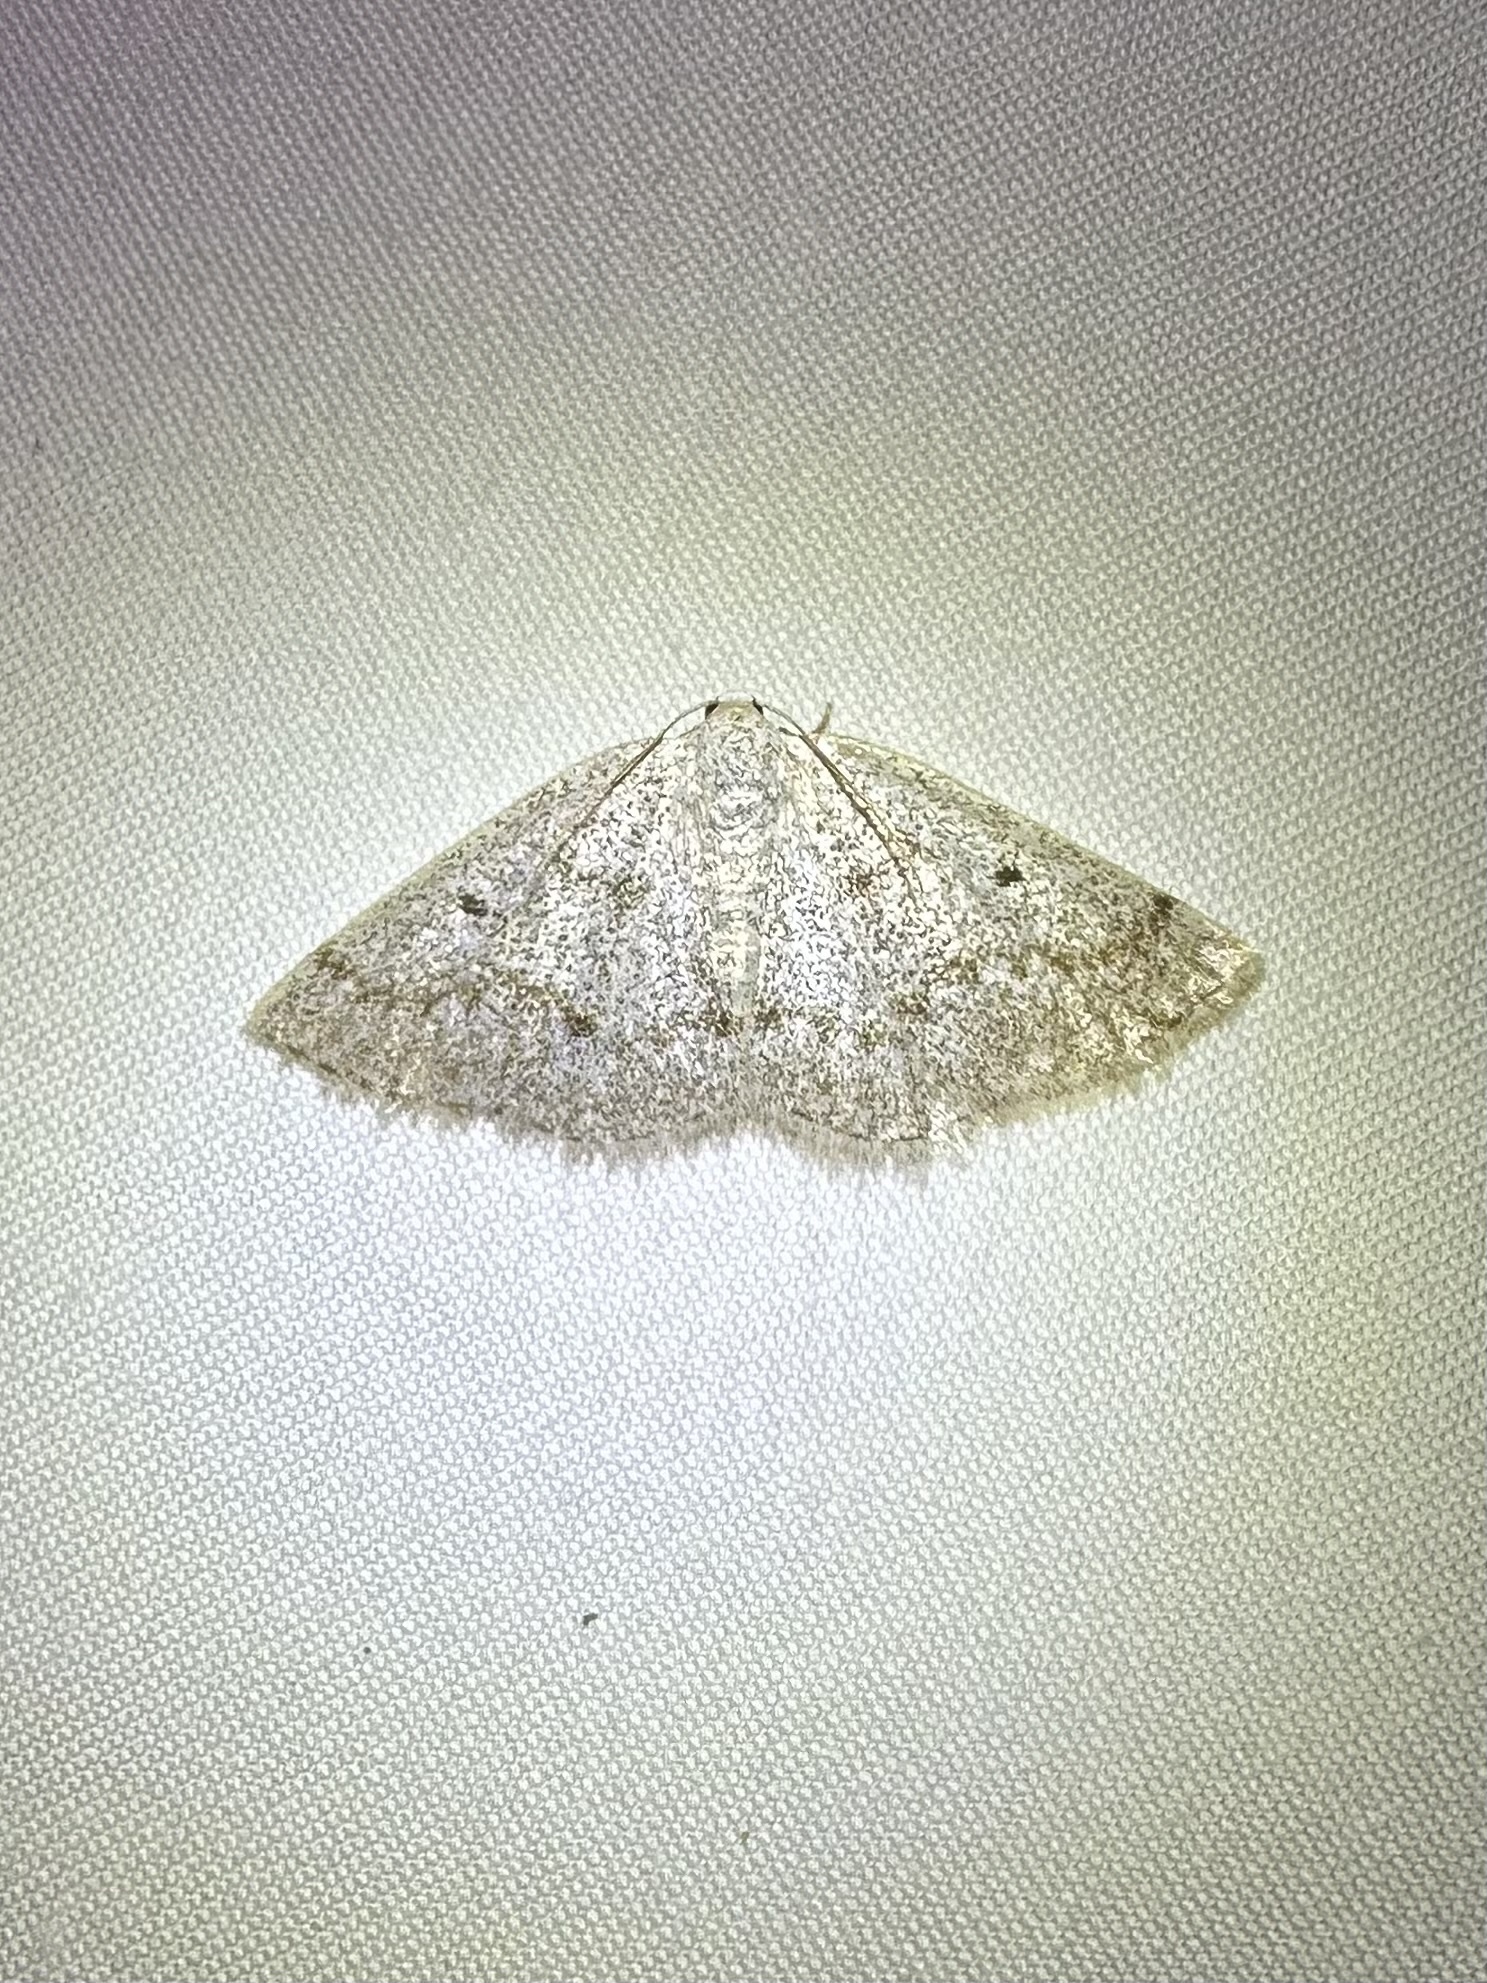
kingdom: Animalia
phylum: Arthropoda
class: Insecta
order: Lepidoptera
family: Geometridae
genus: Lomographa
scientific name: Lomographa glomeraria
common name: Gray spring moth
